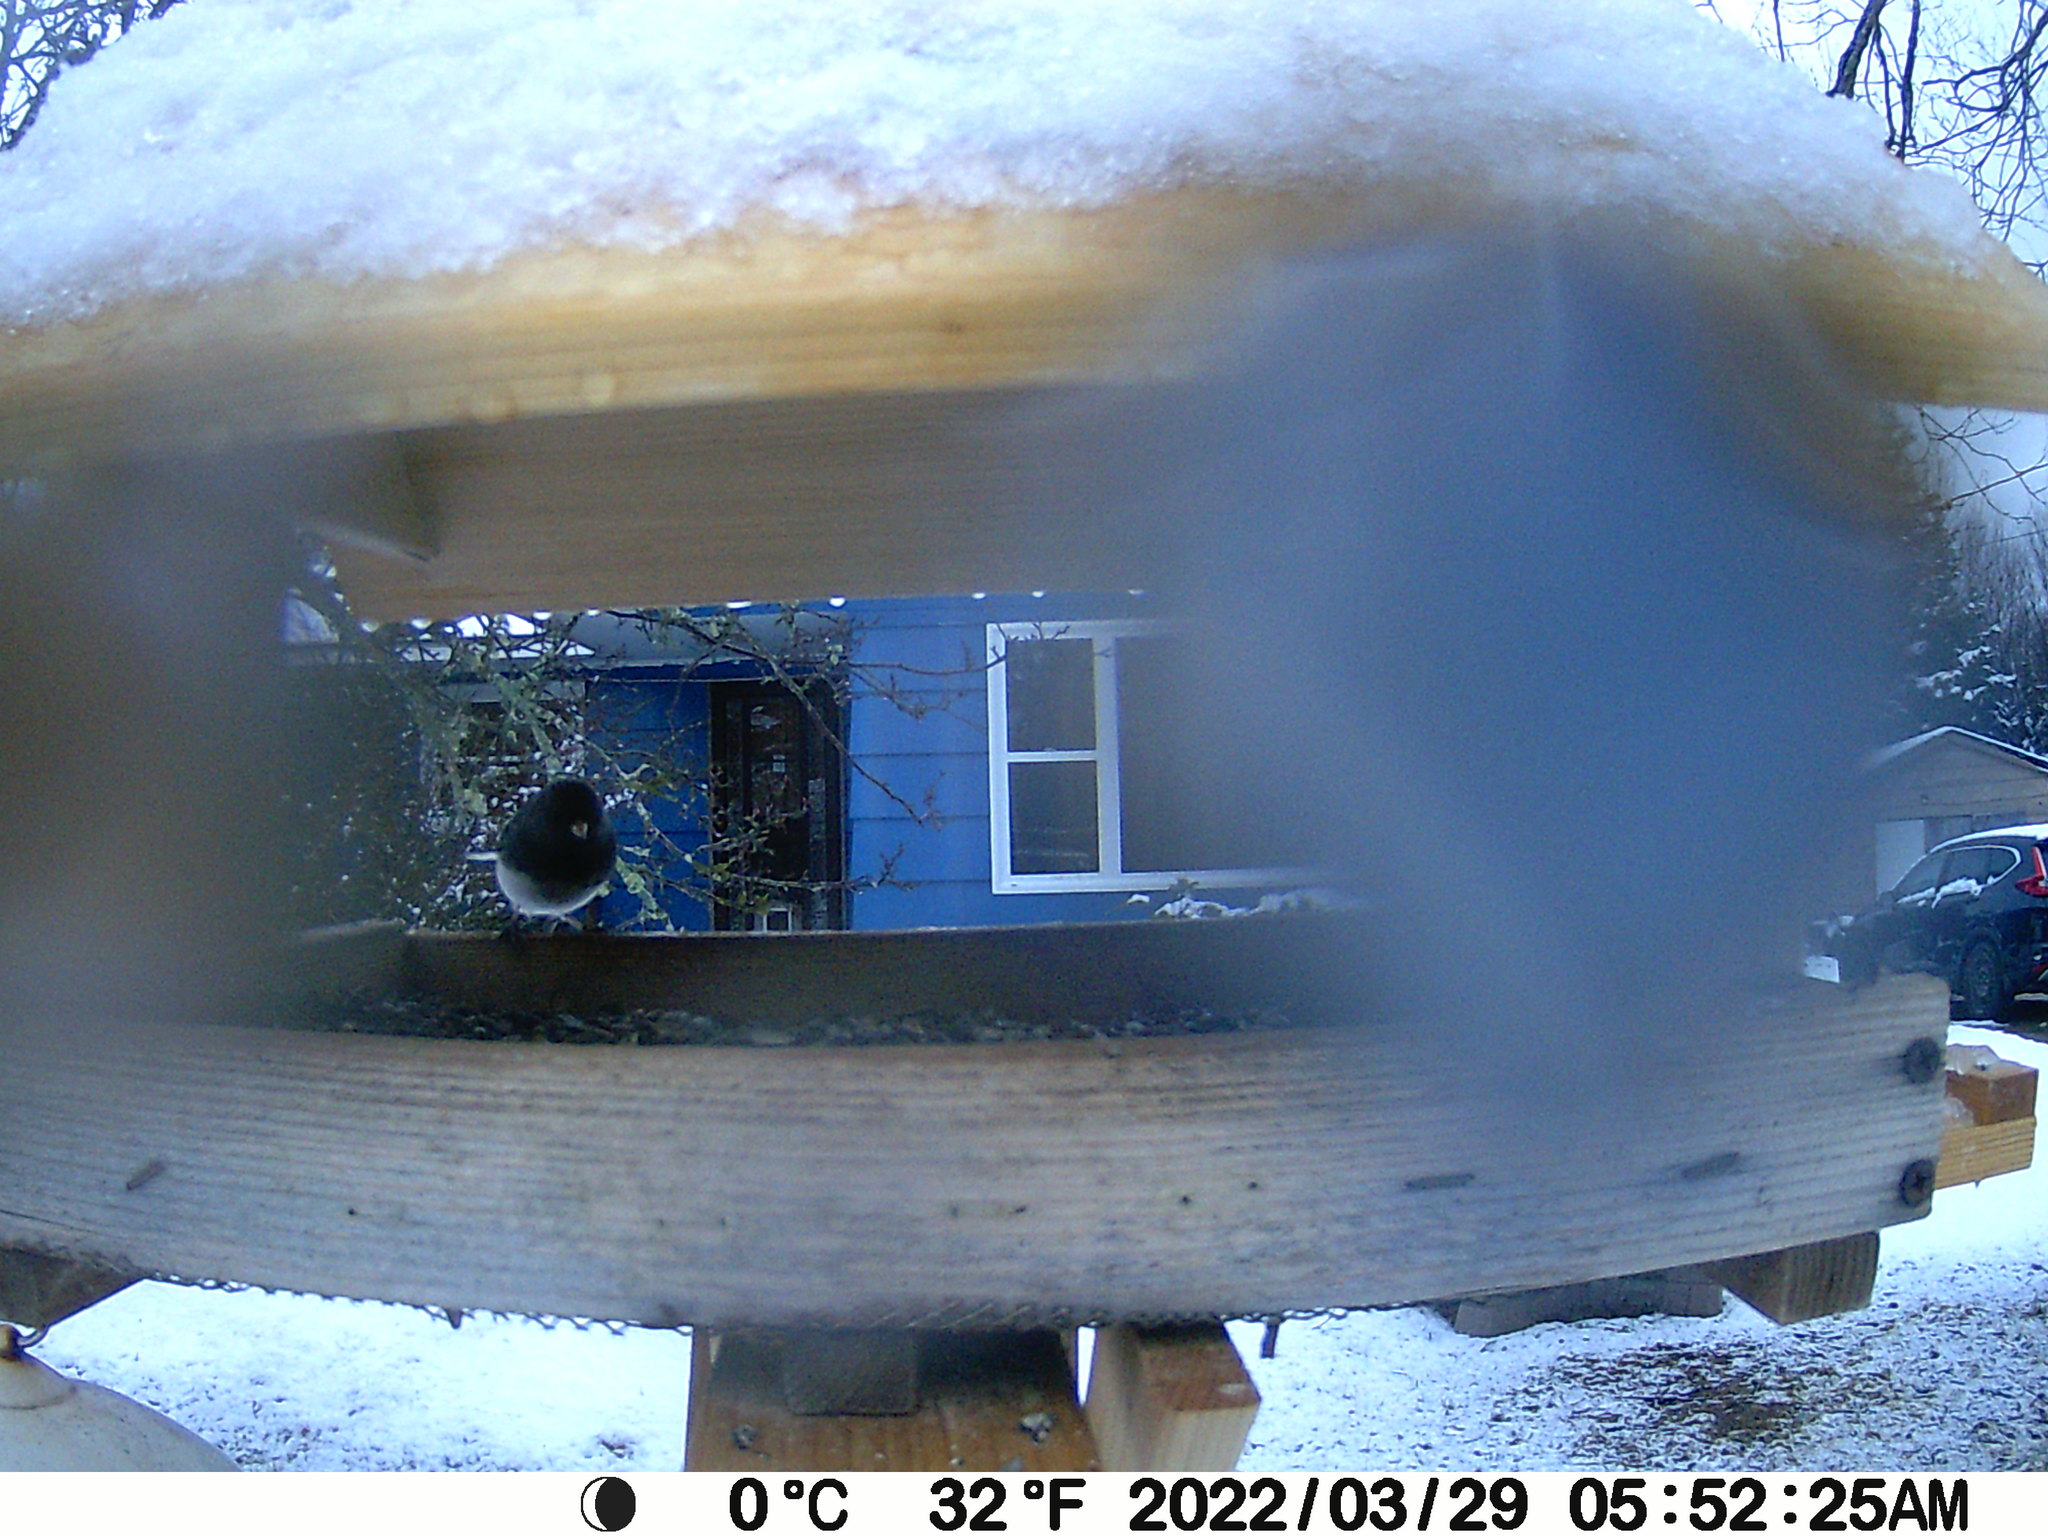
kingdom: Animalia
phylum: Chordata
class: Aves
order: Passeriformes
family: Passerellidae
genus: Junco
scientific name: Junco hyemalis
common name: Dark-eyed junco
